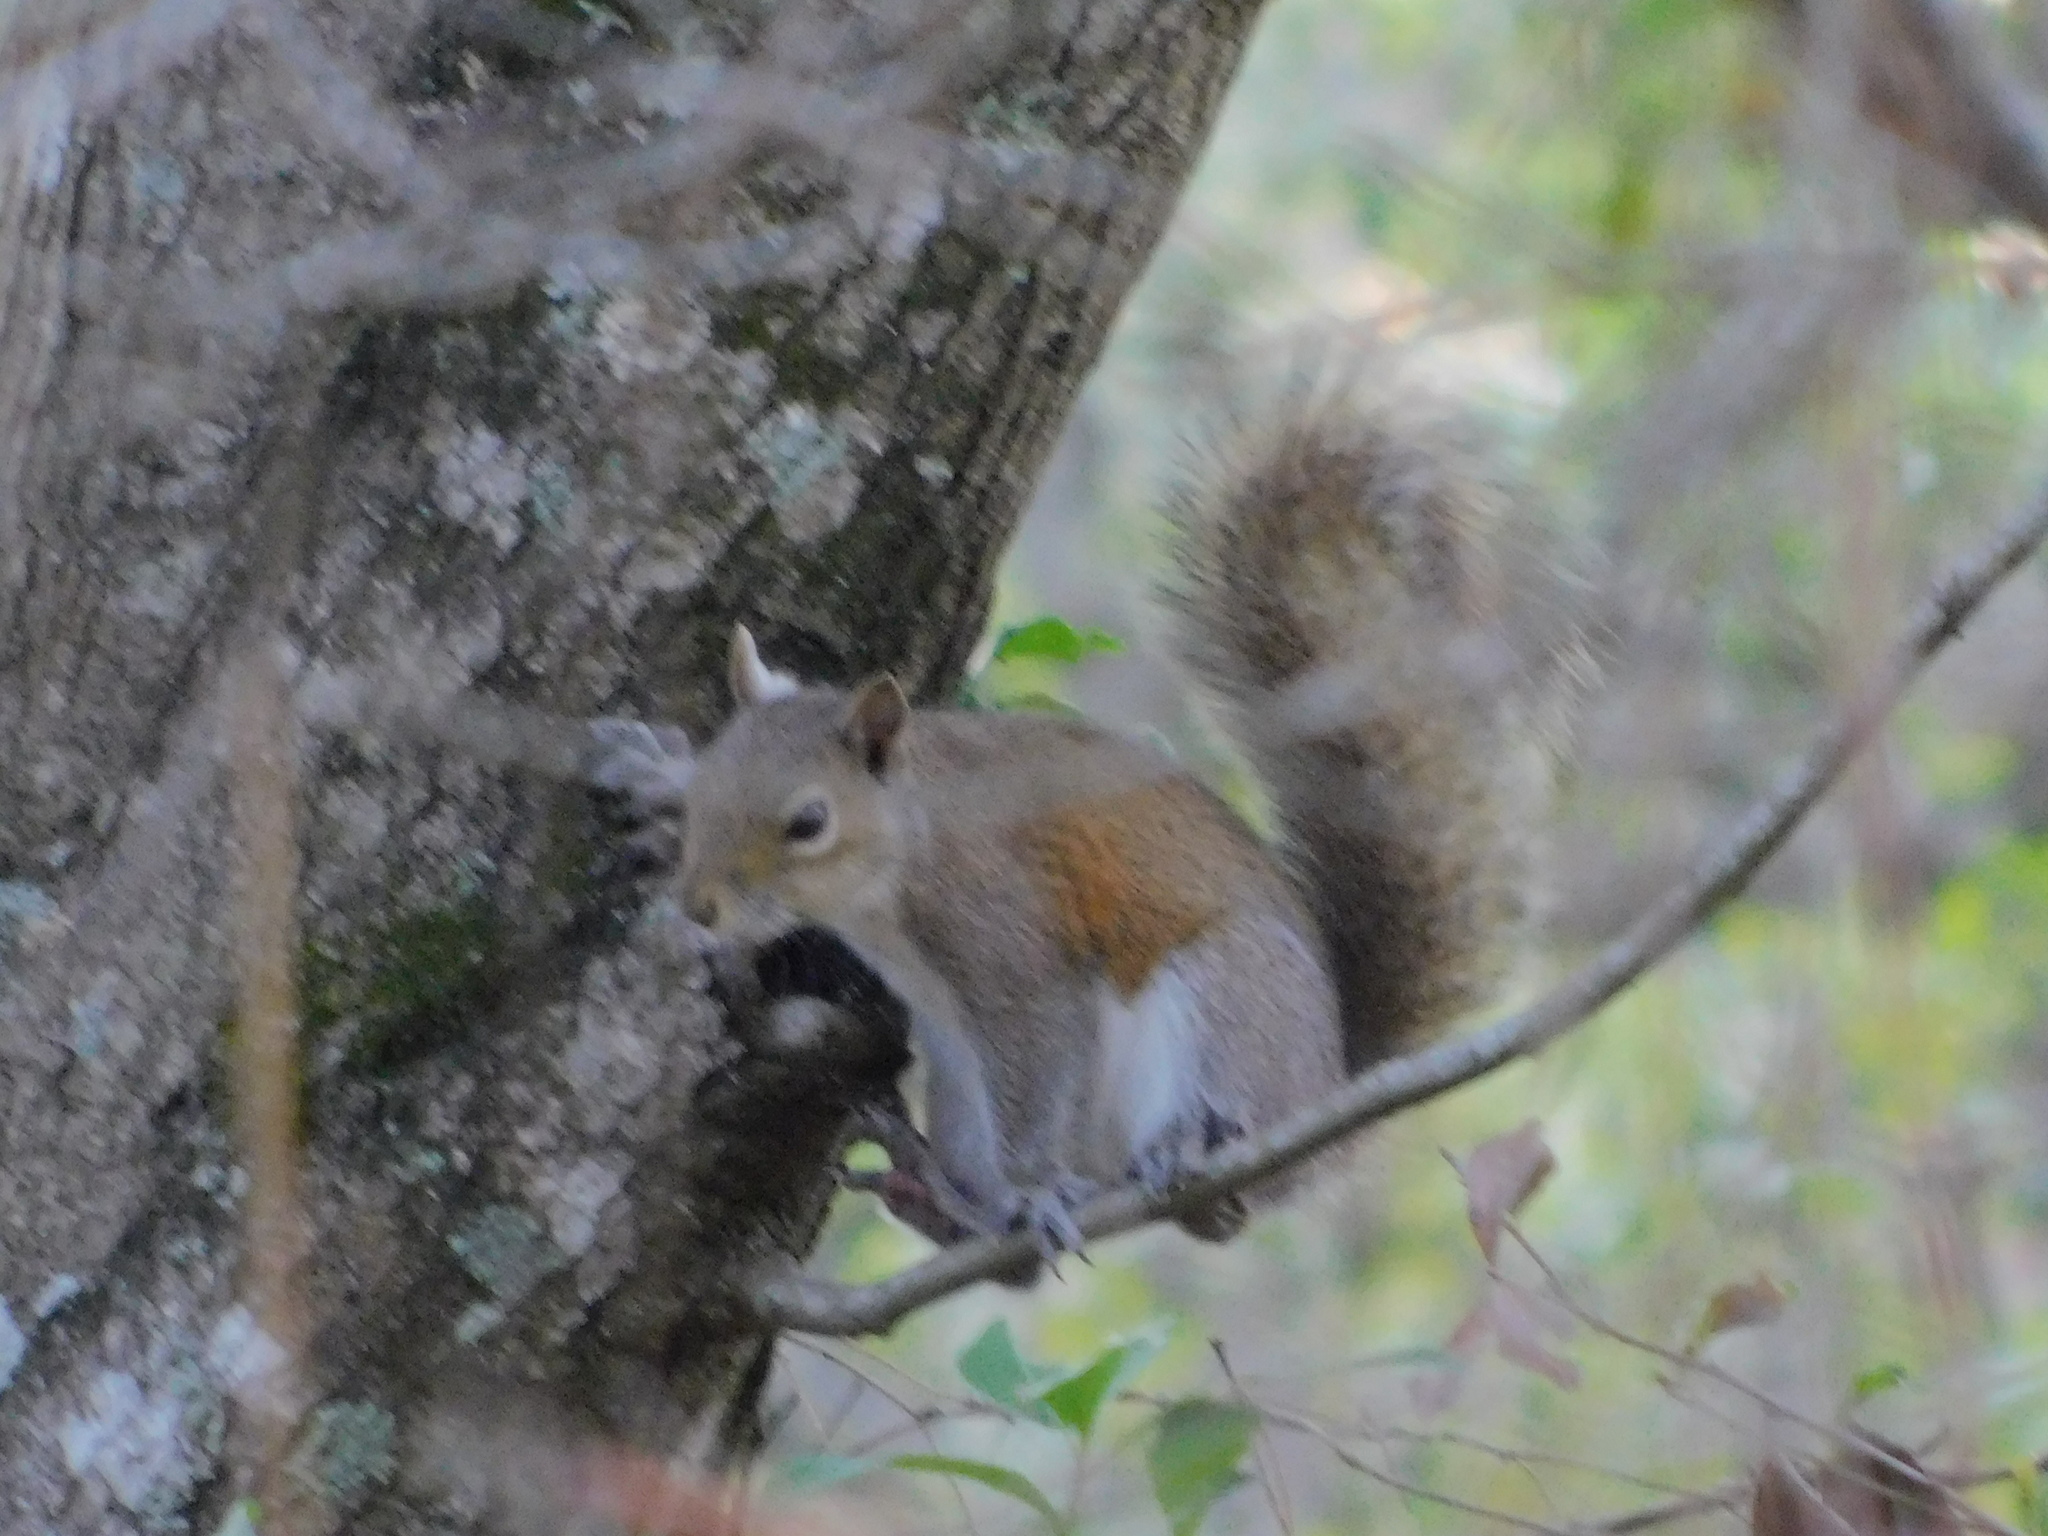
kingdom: Animalia
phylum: Chordata
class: Mammalia
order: Rodentia
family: Sciuridae
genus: Sciurus
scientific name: Sciurus carolinensis
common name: Eastern gray squirrel
